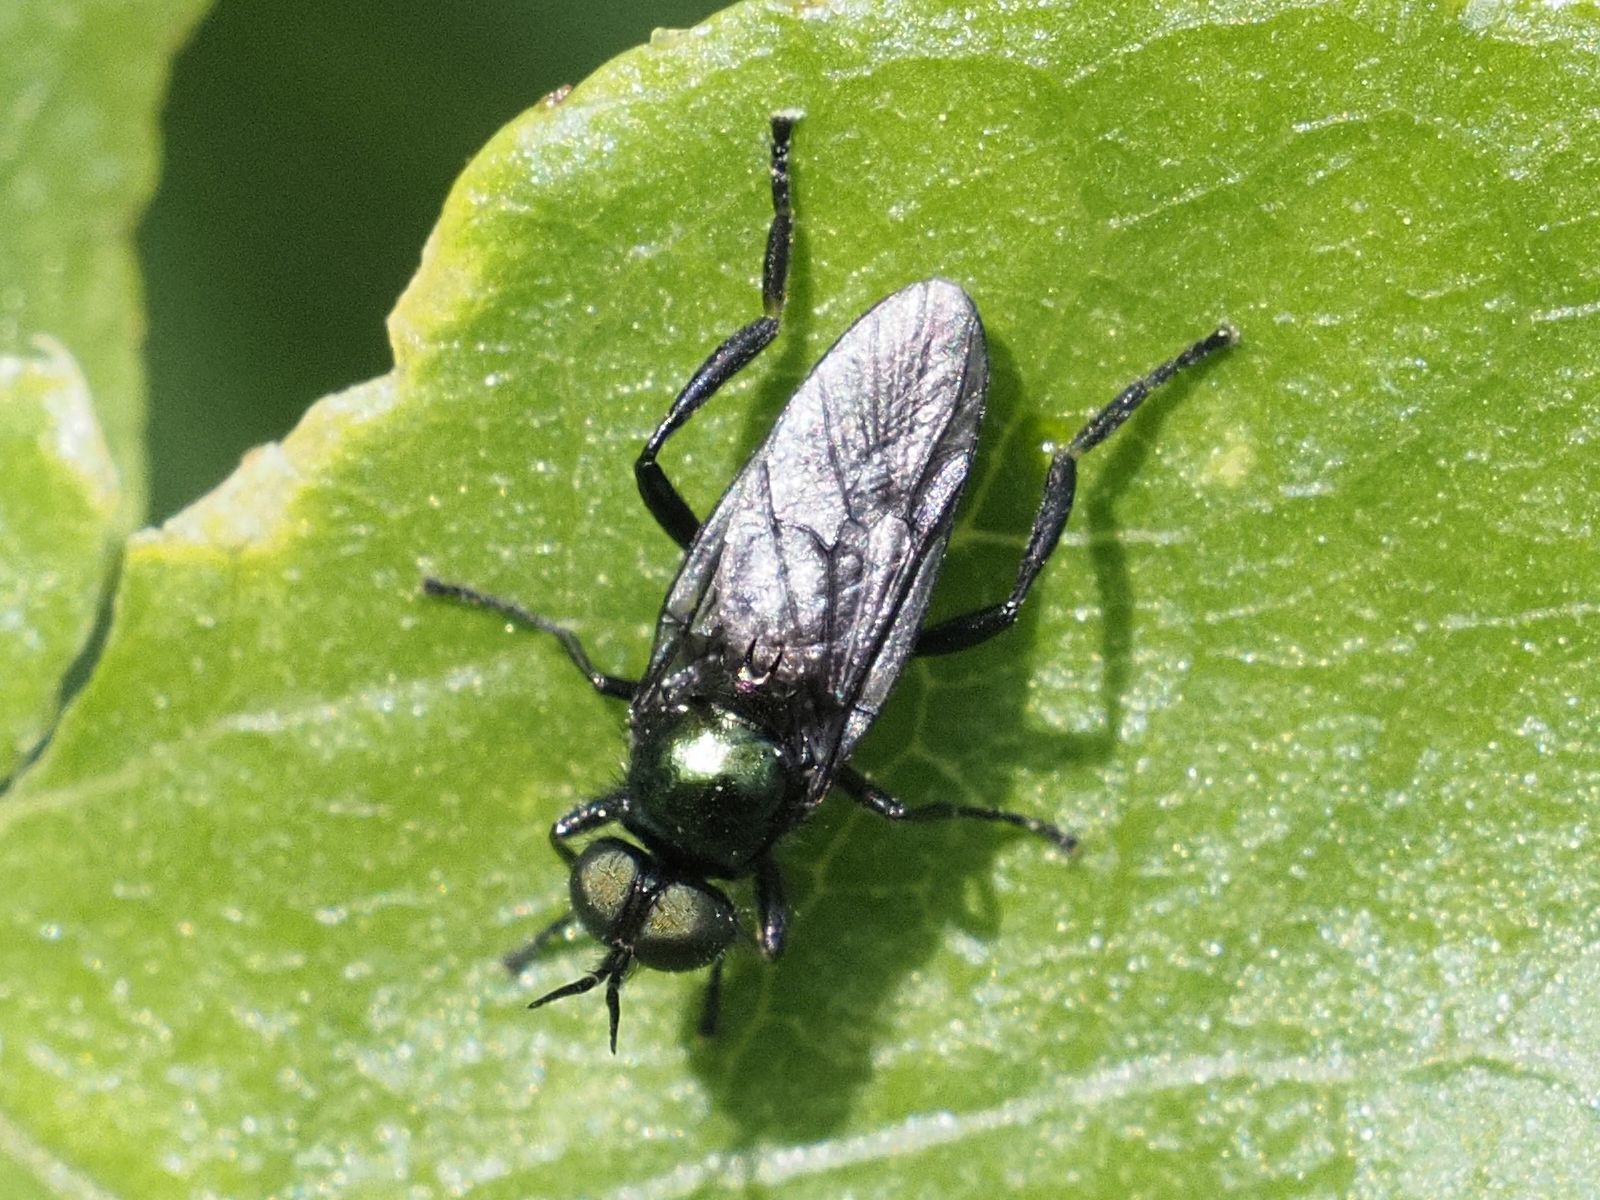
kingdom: Animalia
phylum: Arthropoda
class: Insecta
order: Diptera
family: Stratiomyidae
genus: Actina
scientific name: Actina chalybea
